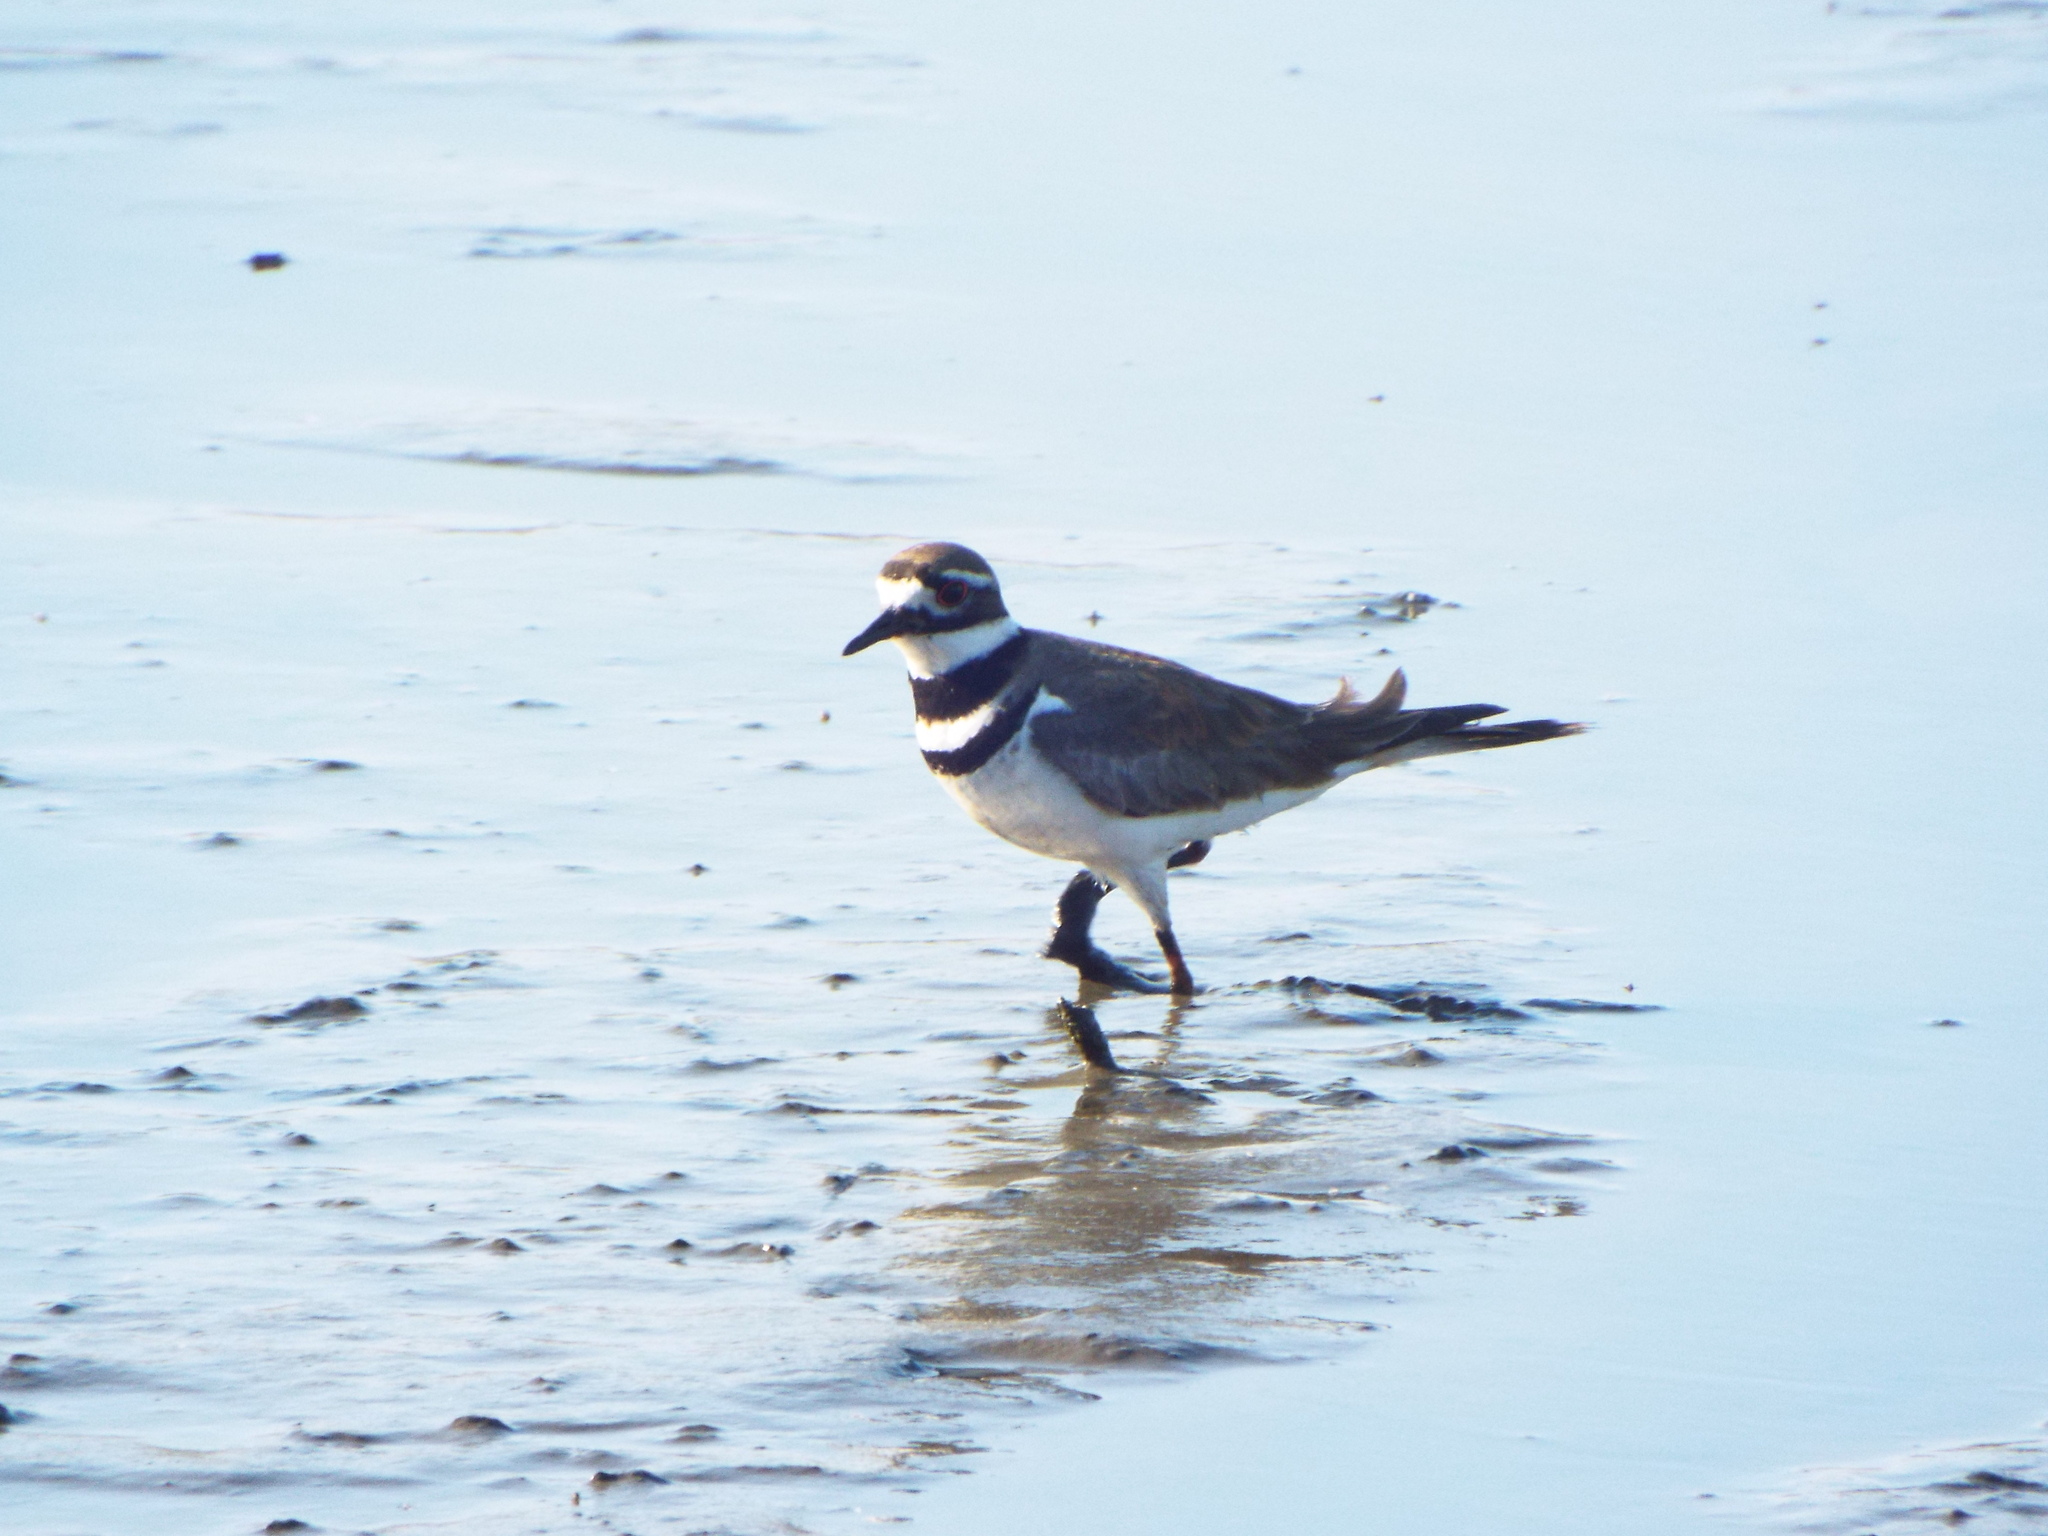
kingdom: Animalia
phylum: Chordata
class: Aves
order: Charadriiformes
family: Charadriidae
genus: Charadrius
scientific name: Charadrius vociferus
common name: Killdeer
